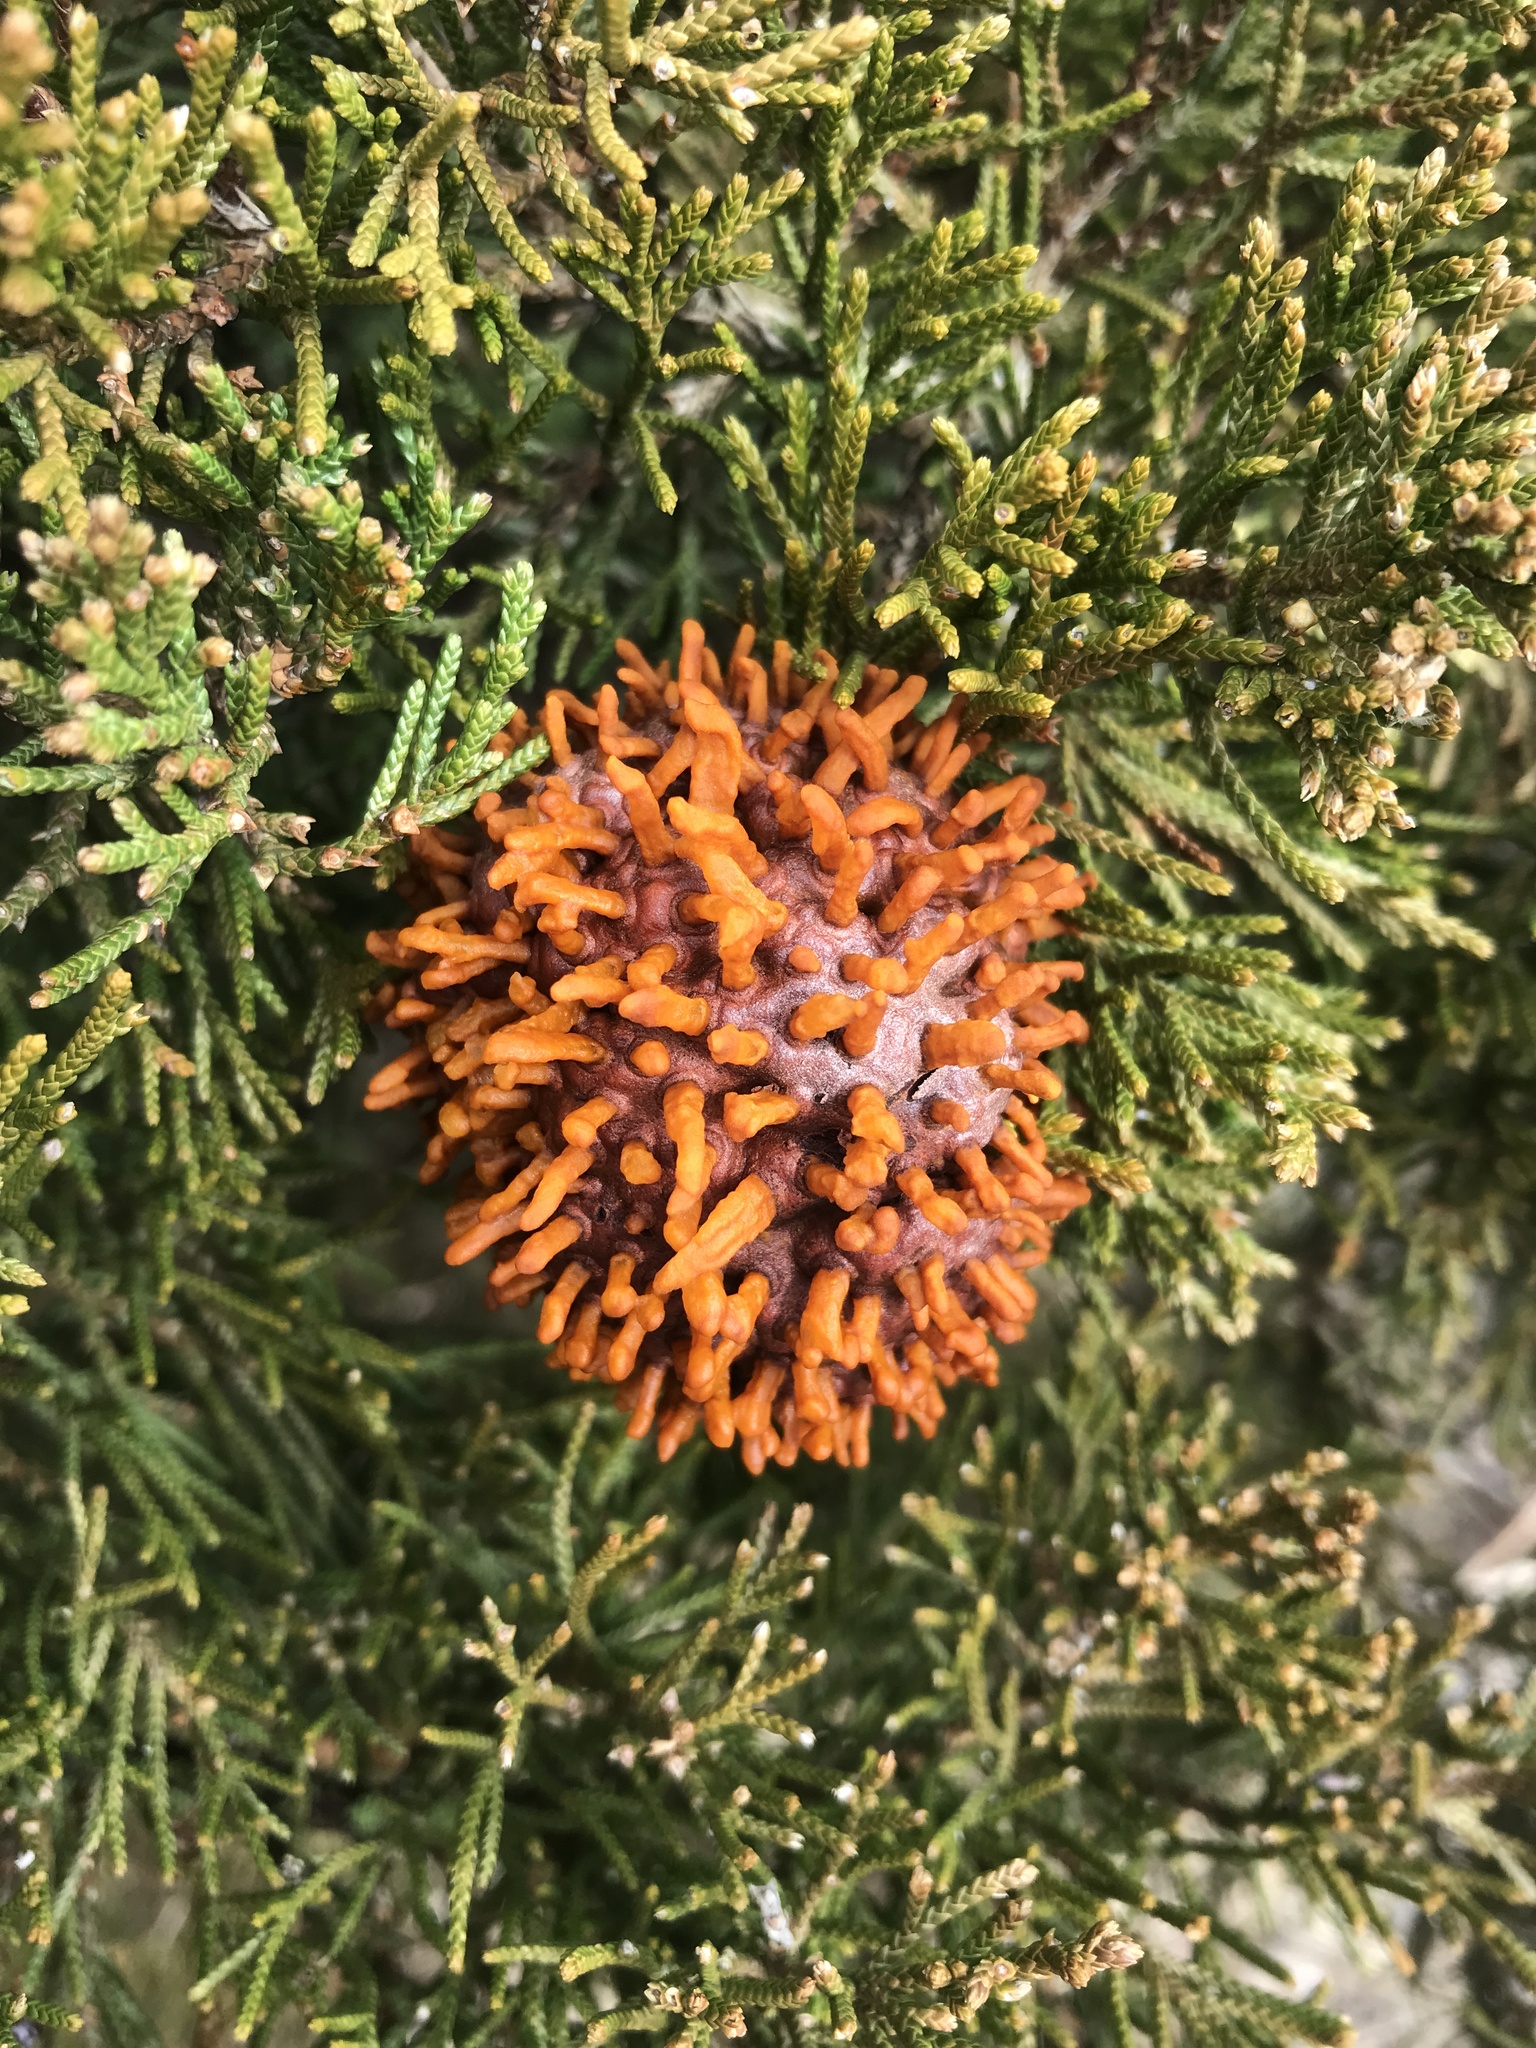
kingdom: Fungi
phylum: Basidiomycota
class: Pucciniomycetes
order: Pucciniales
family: Gymnosporangiaceae
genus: Gymnosporangium
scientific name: Gymnosporangium juniperi-virginianae
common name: Juniper-apple rust
